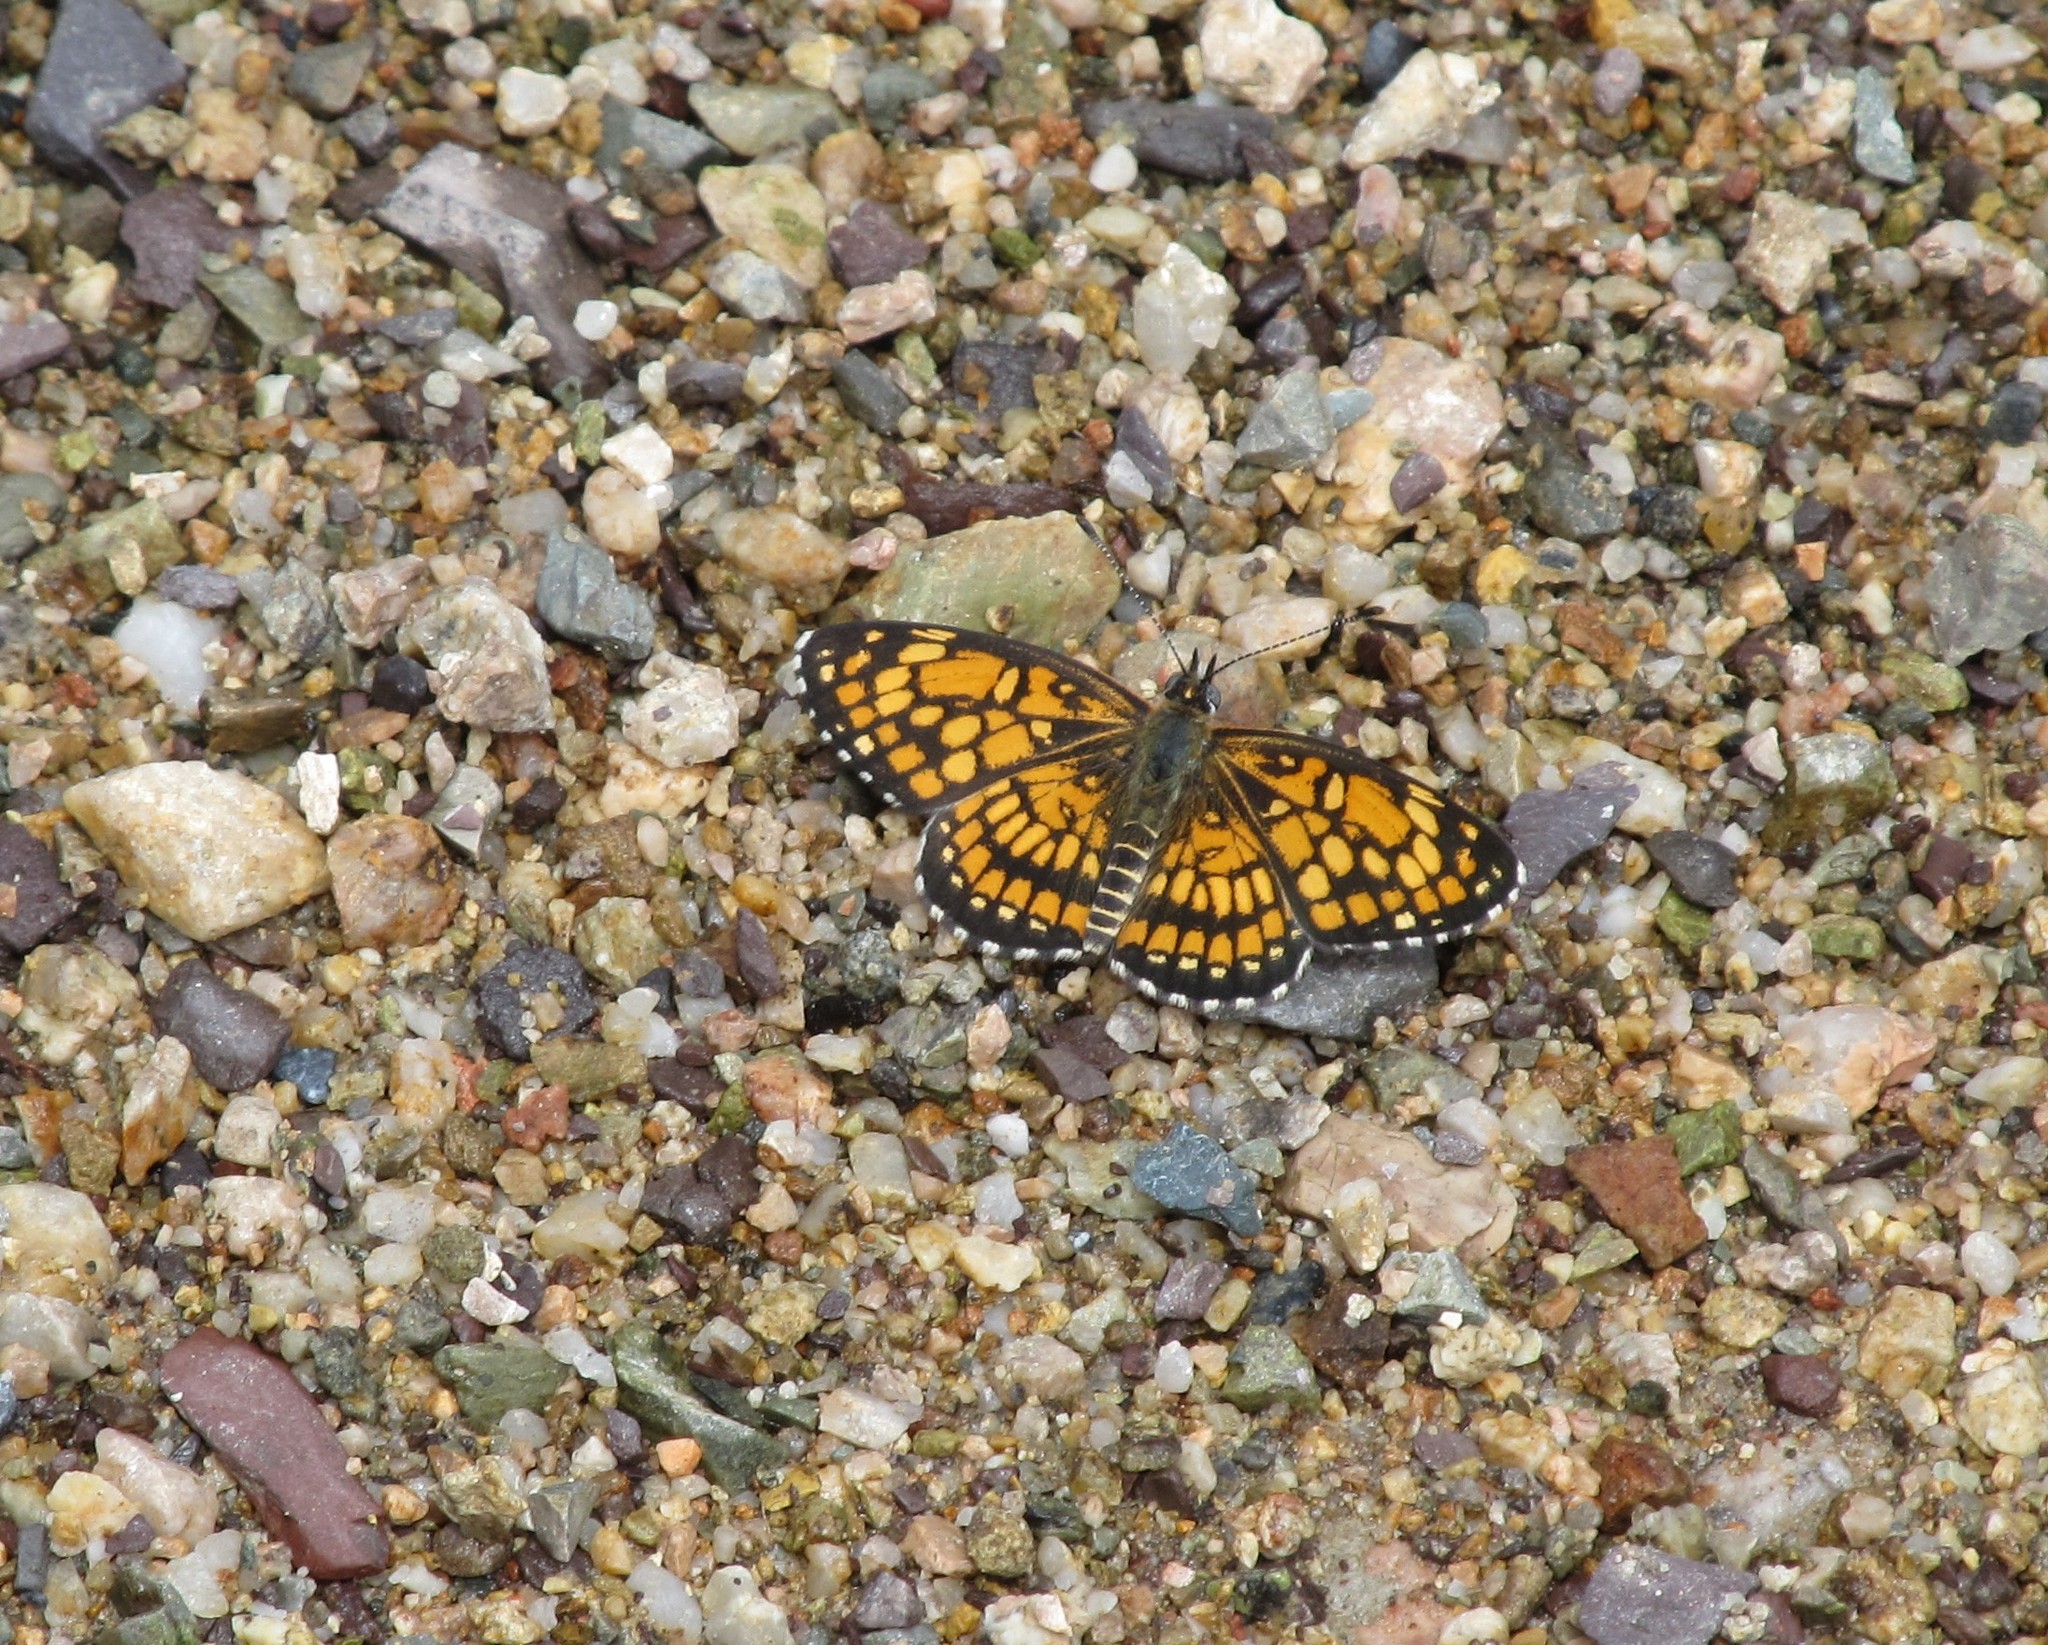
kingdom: Animalia
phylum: Arthropoda
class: Insecta
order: Lepidoptera
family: Nymphalidae
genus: Thessalia
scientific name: Thessalia theona
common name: Nymphalid moth
